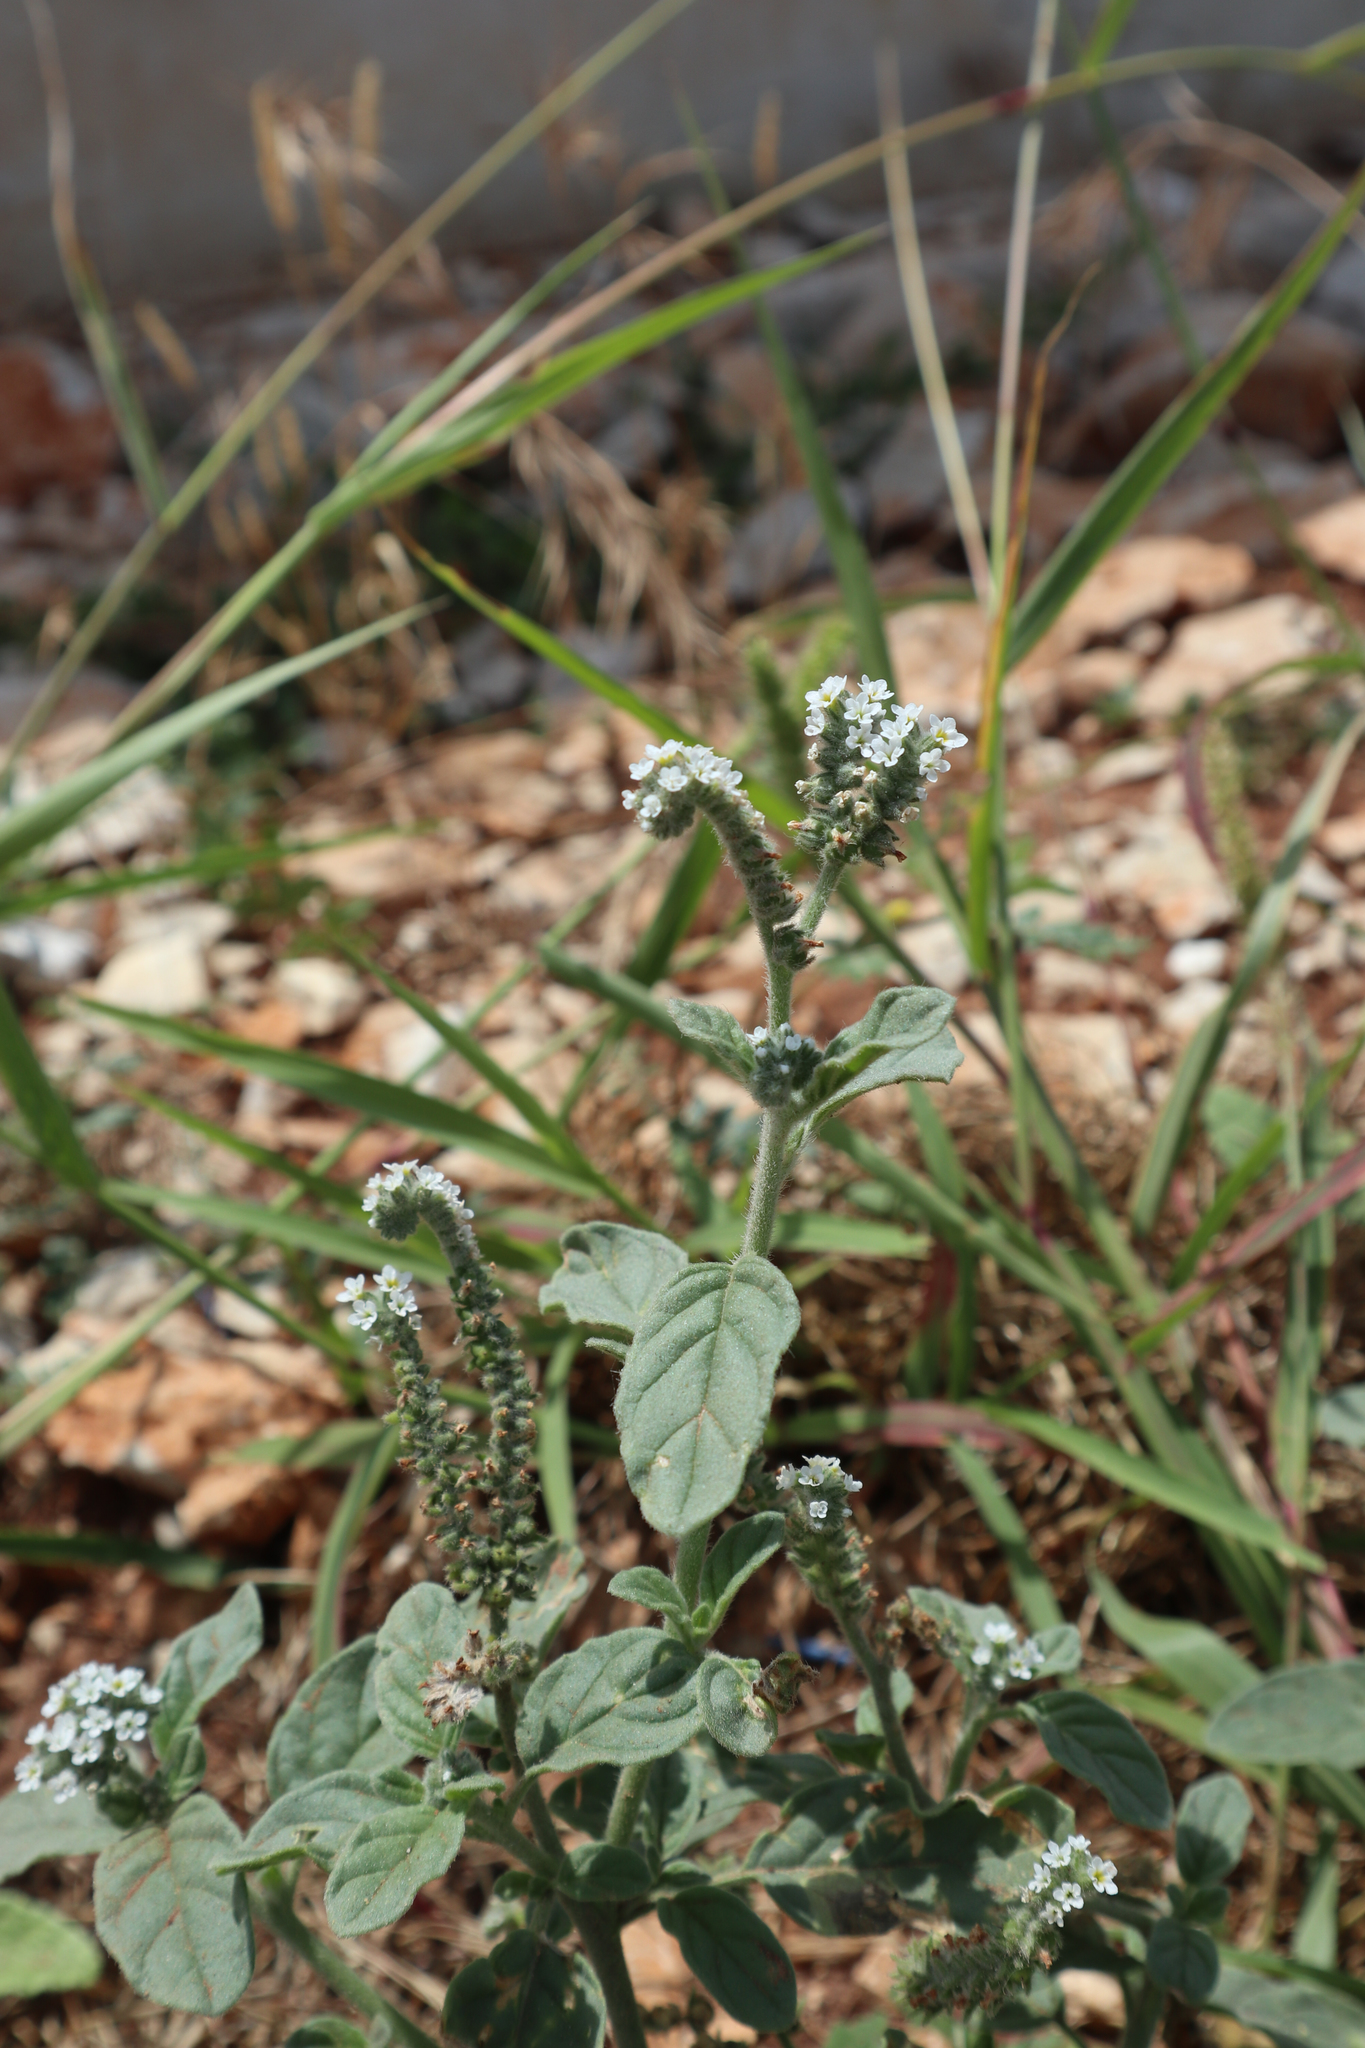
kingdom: Plantae
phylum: Tracheophyta
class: Magnoliopsida
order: Boraginales
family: Heliotropiaceae
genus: Heliotropium
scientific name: Heliotropium europaeum
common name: European heliotrope
